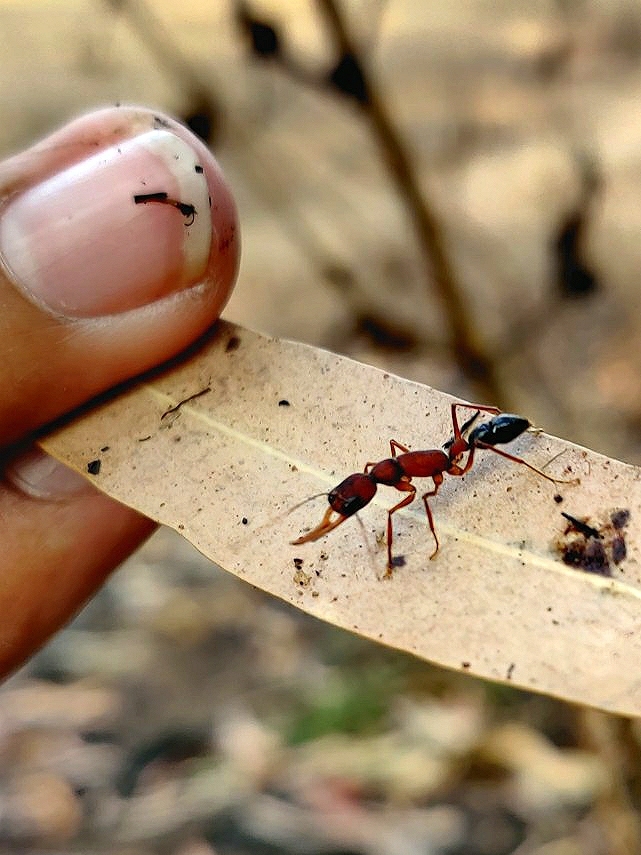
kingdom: Animalia
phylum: Arthropoda
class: Insecta
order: Hymenoptera
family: Formicidae
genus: Harpegnathos
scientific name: Harpegnathos saltator
